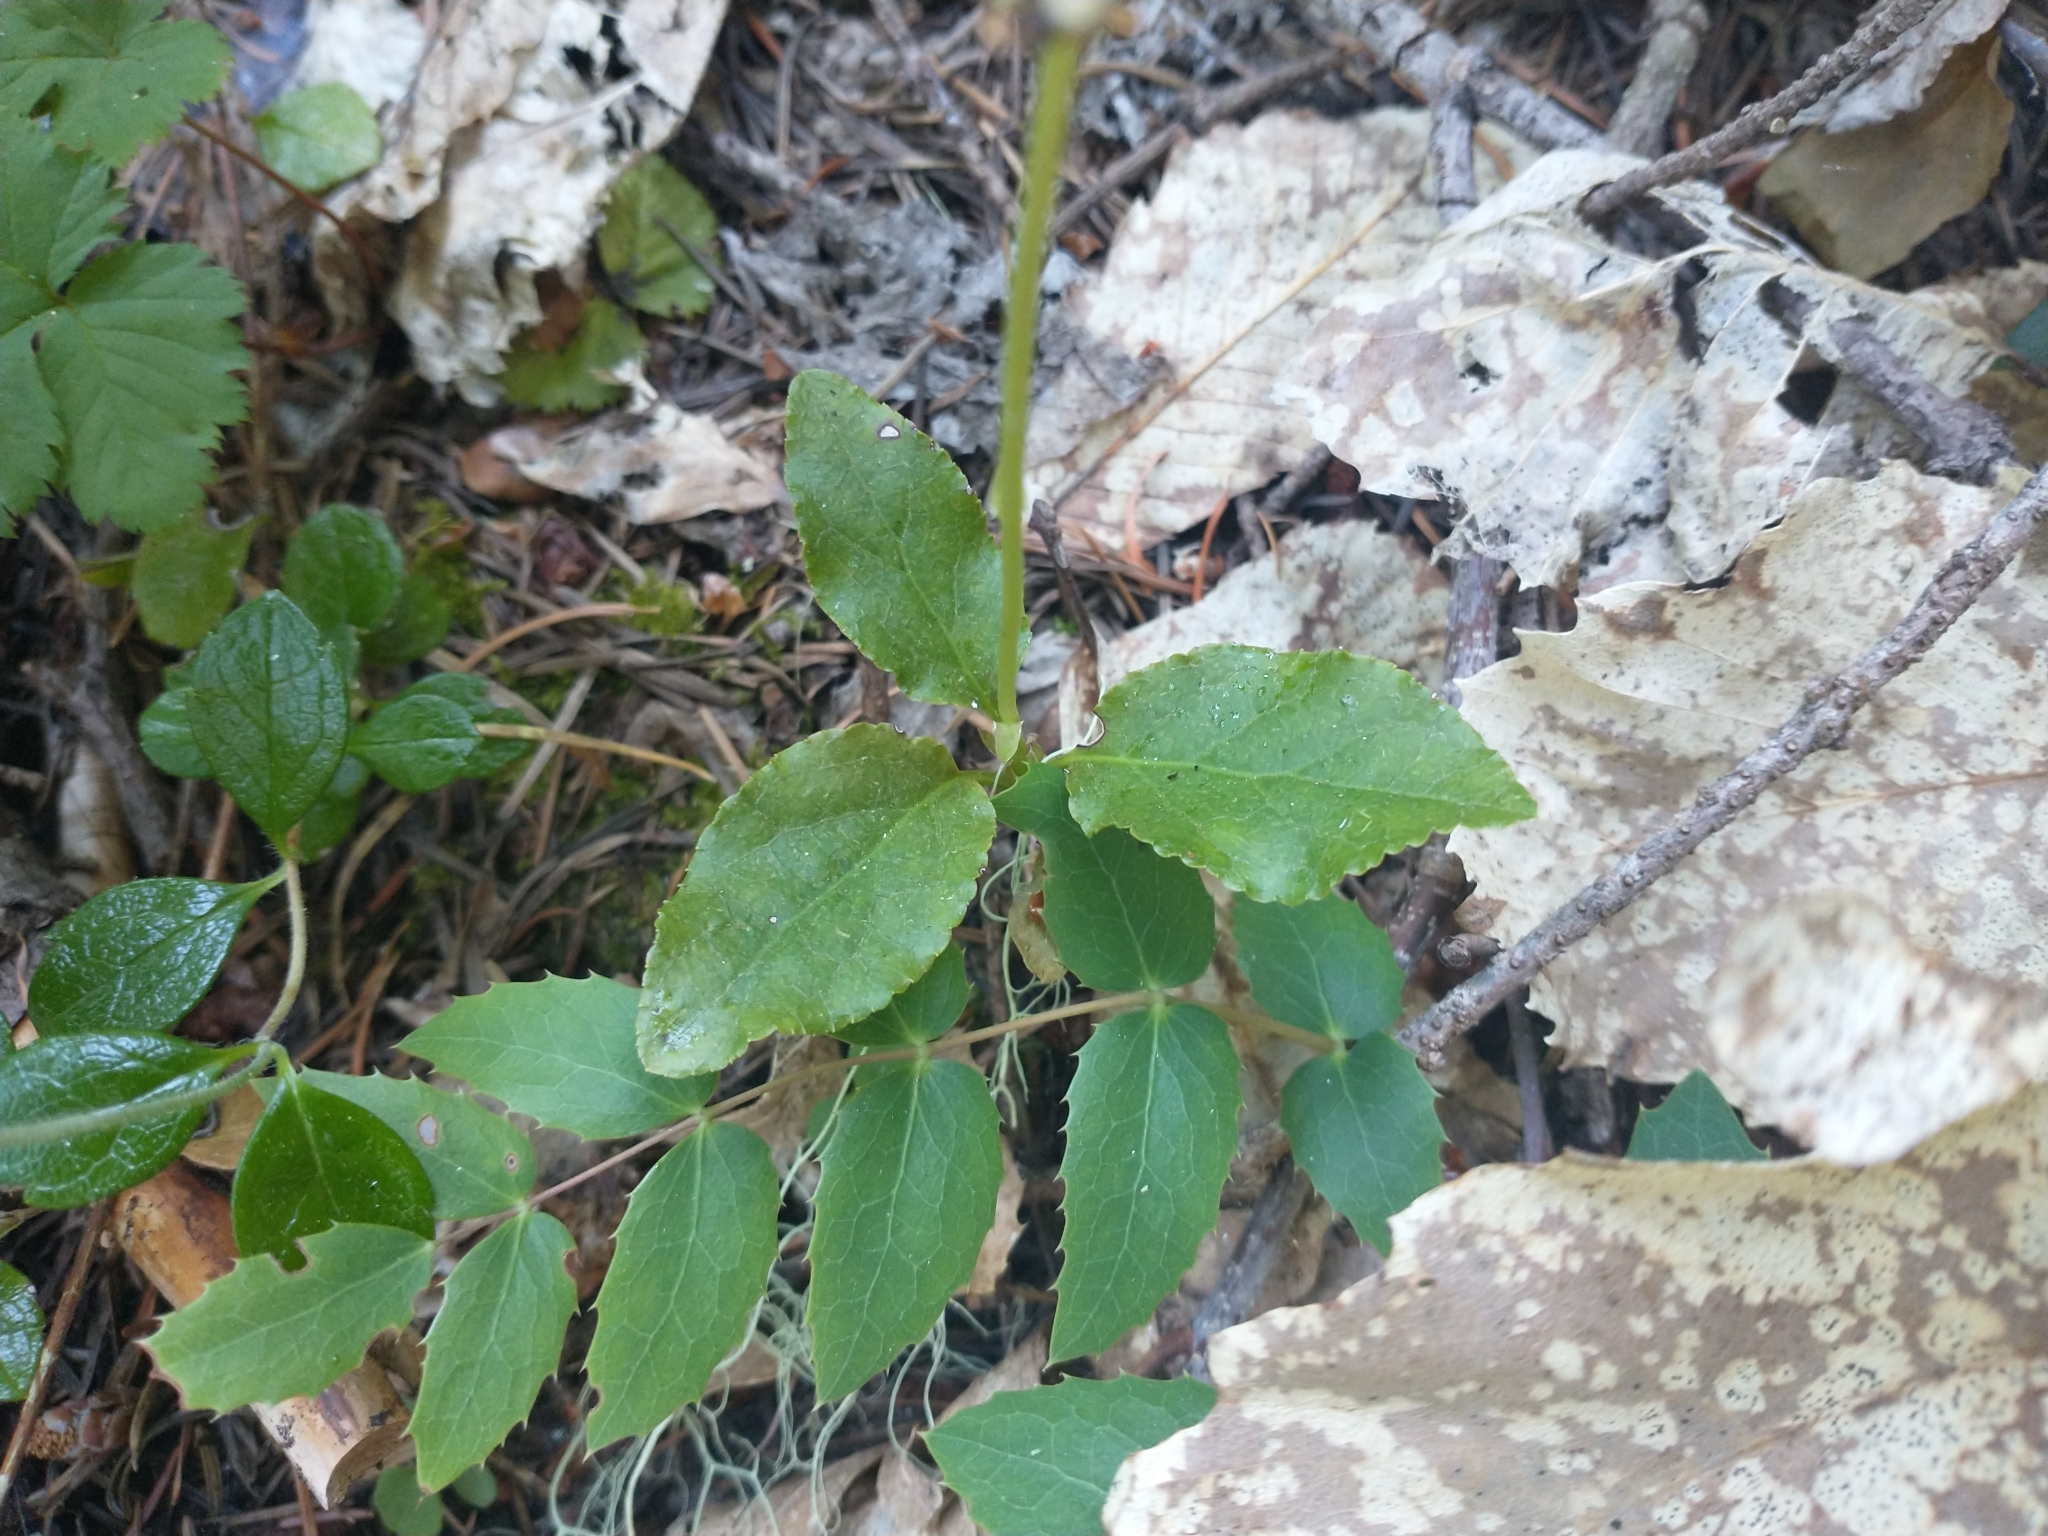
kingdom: Plantae
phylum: Tracheophyta
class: Magnoliopsida
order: Ericales
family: Ericaceae
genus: Orthilia
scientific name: Orthilia secunda
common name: One-sided orthilia
